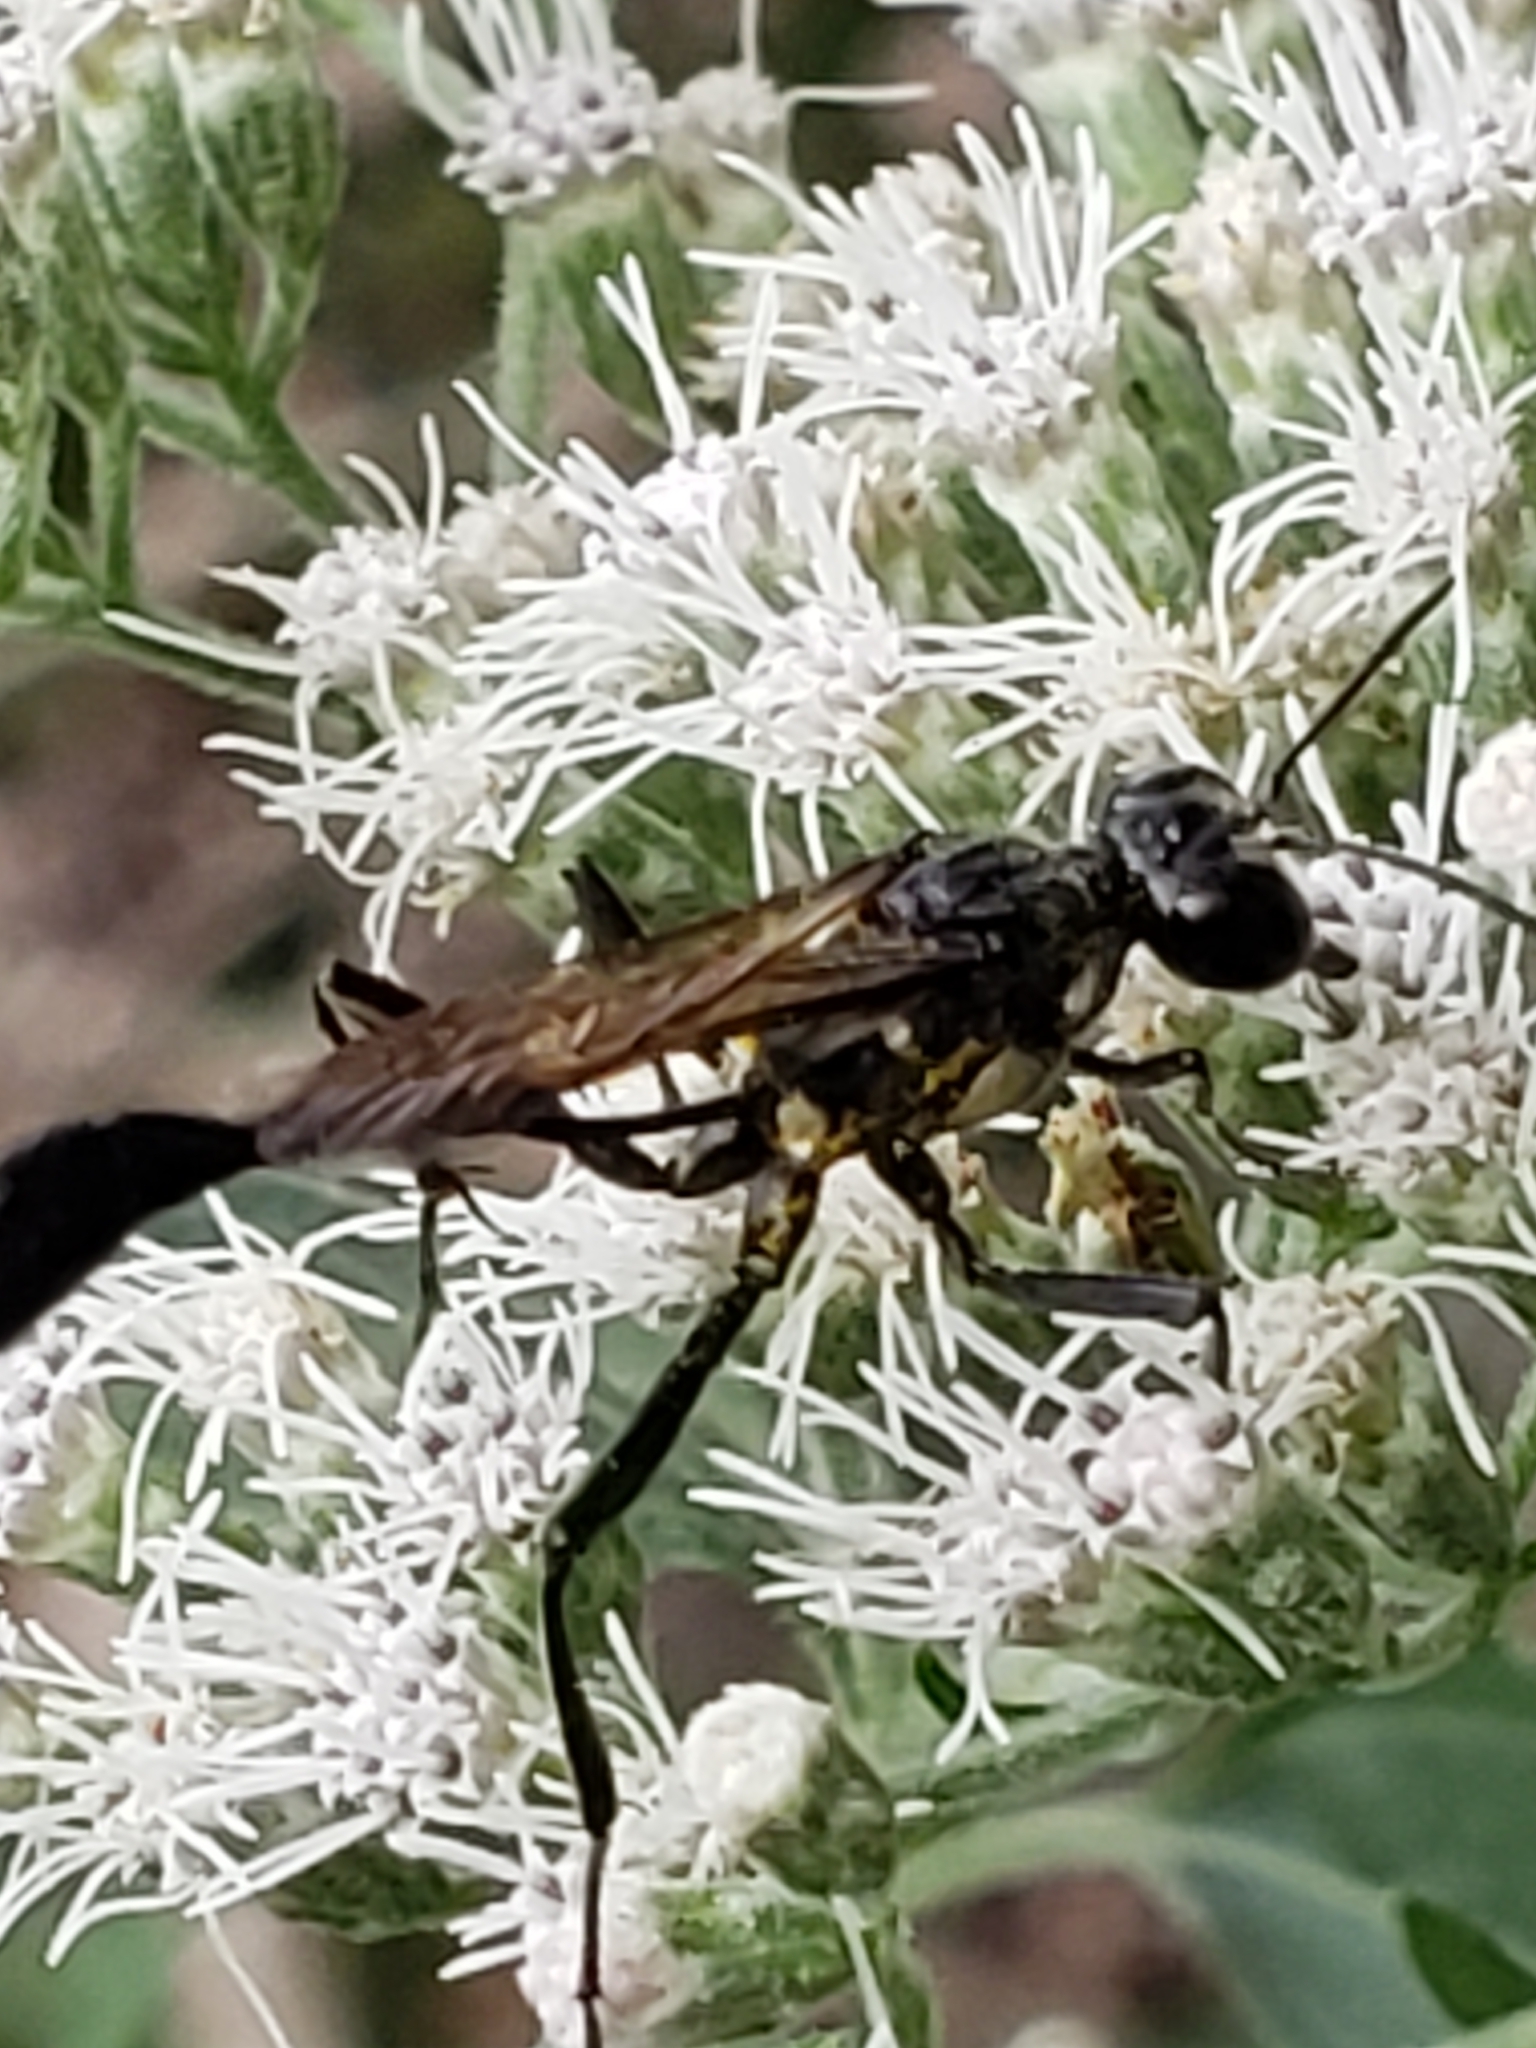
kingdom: Animalia
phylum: Arthropoda
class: Insecta
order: Hymenoptera
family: Sphecidae
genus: Eremnophila
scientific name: Eremnophila aureonotata
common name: Gold-marked thread-waisted wasp
